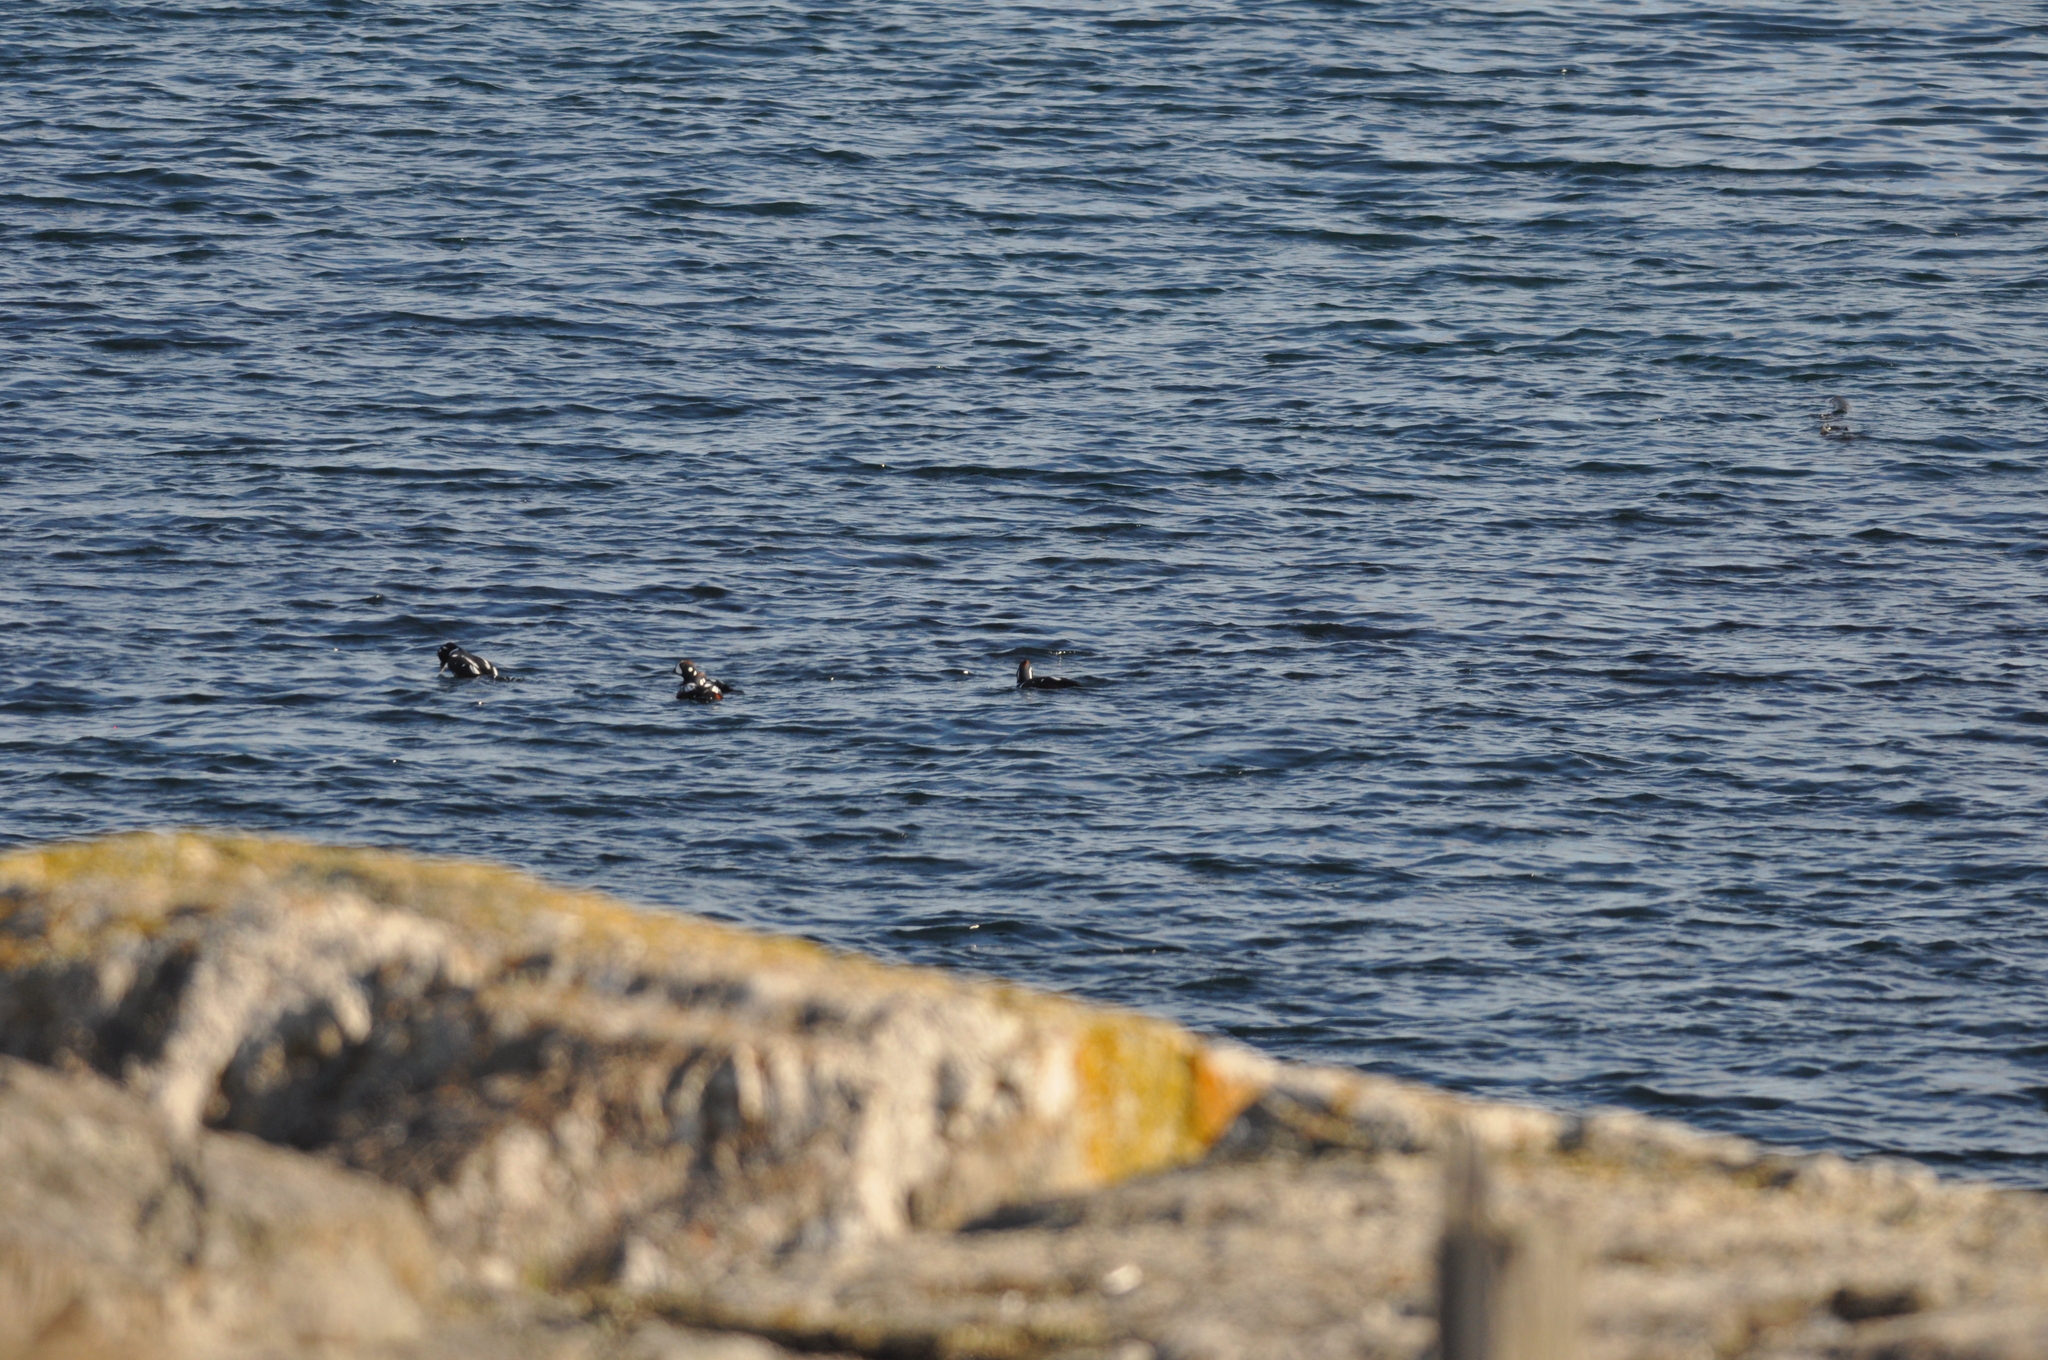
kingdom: Animalia
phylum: Chordata
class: Aves
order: Anseriformes
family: Anatidae
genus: Histrionicus
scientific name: Histrionicus histrionicus
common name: Harlequin duck
